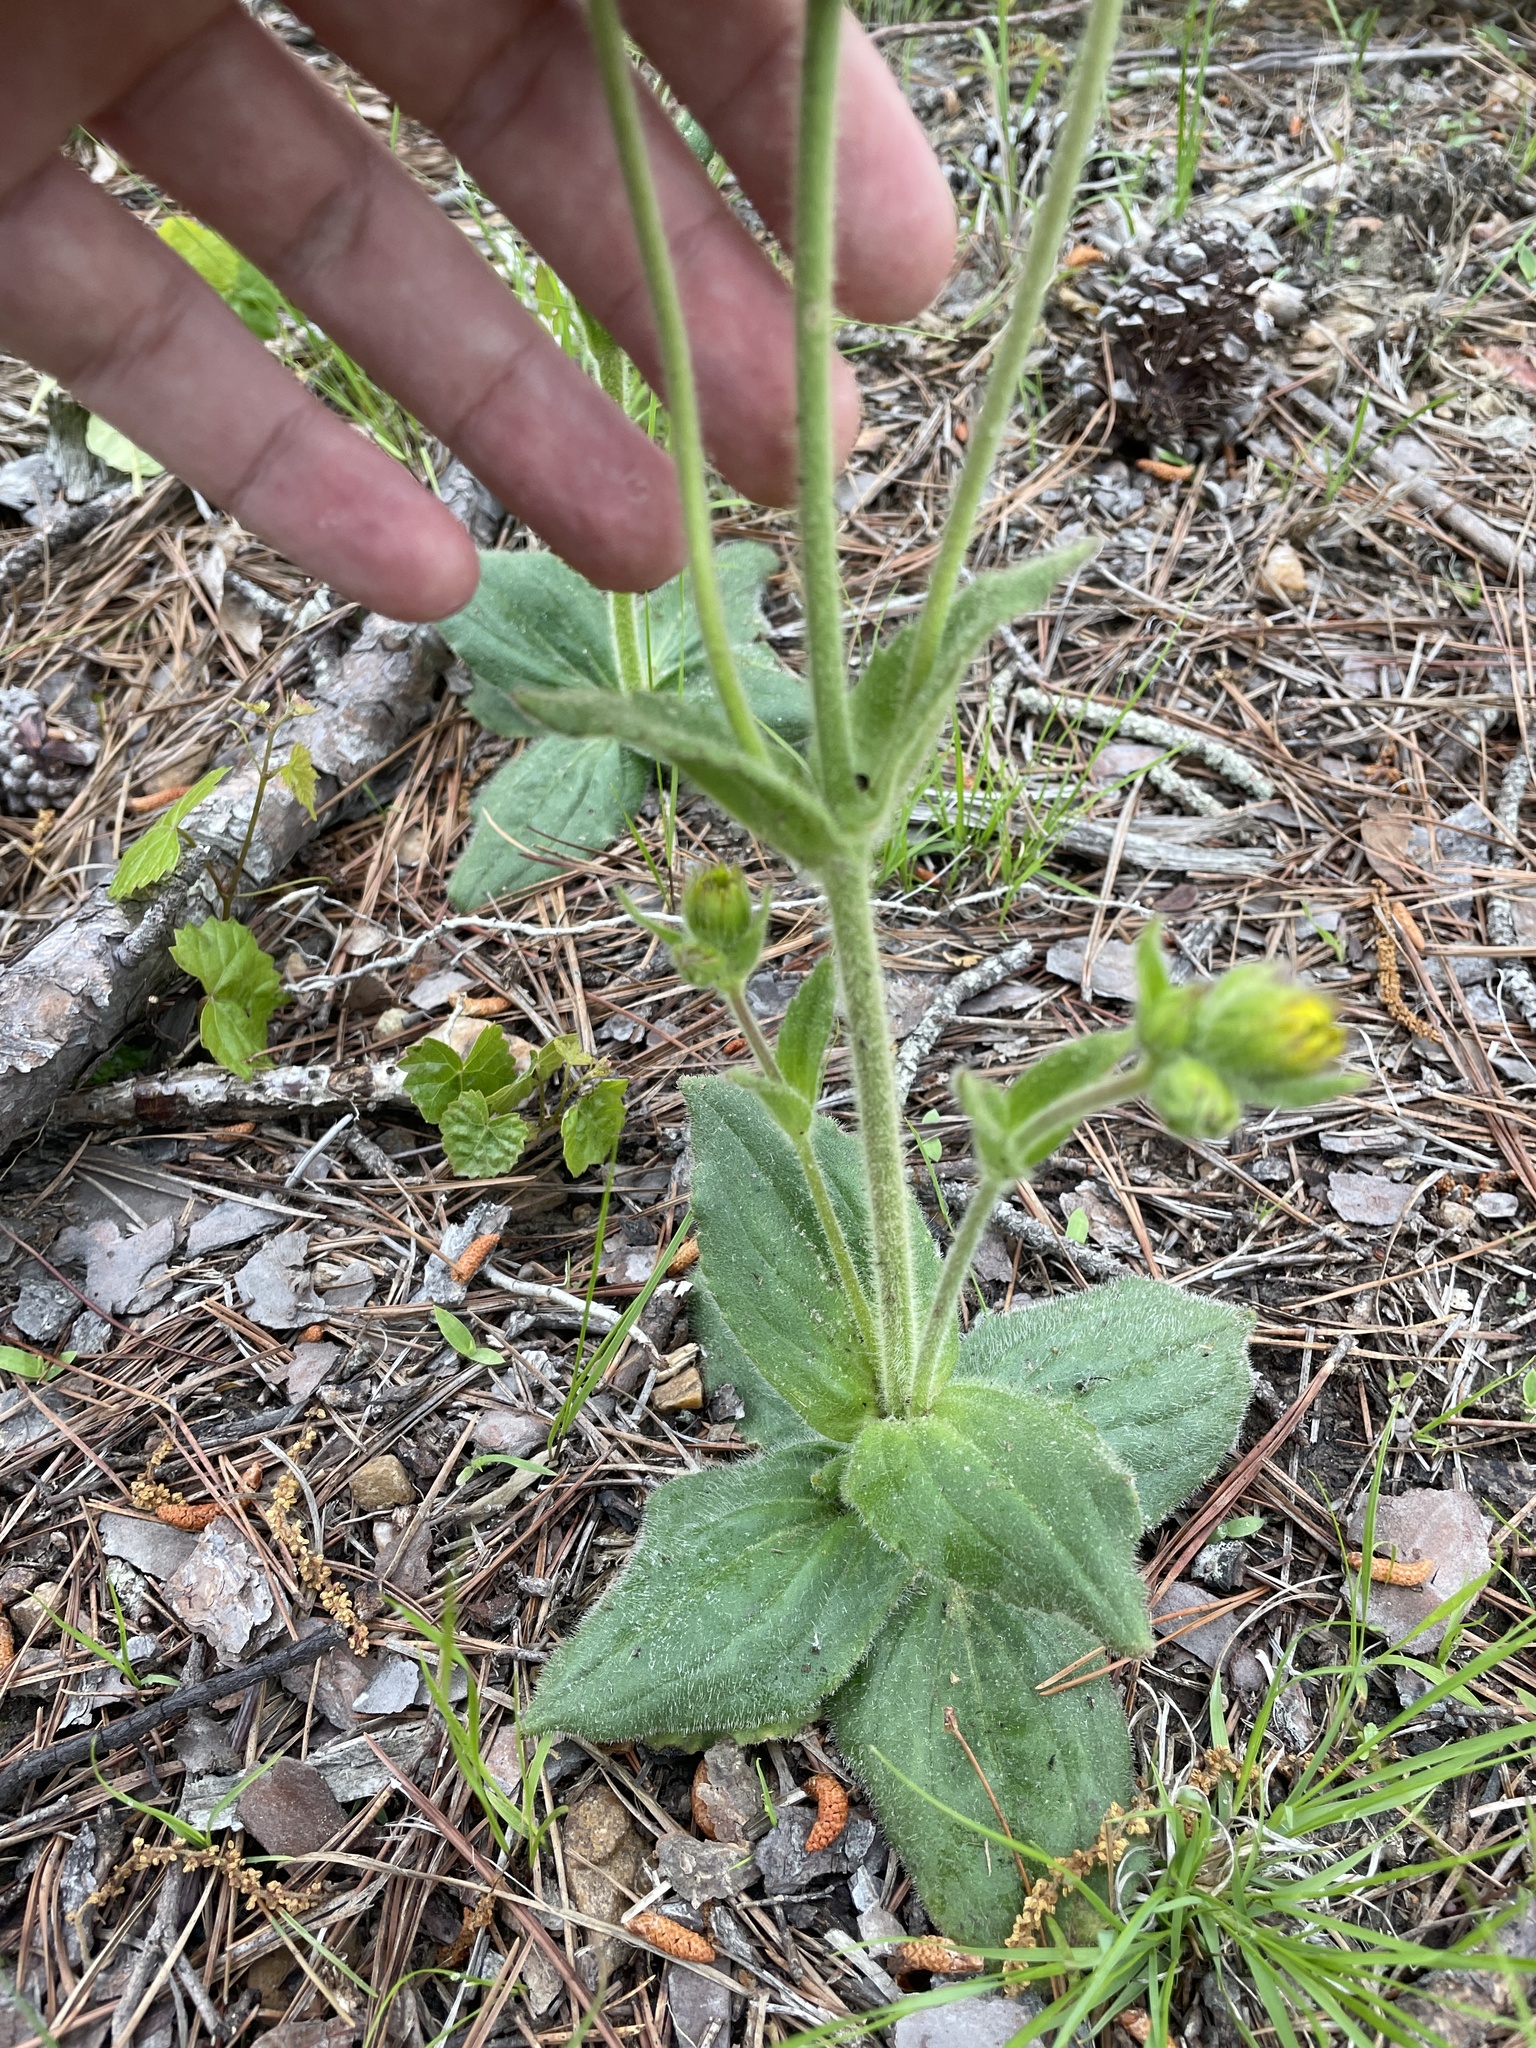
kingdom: Plantae
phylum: Tracheophyta
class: Magnoliopsida
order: Asterales
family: Asteraceae
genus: Arnica
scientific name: Arnica acaulis
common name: Common leopardbane
